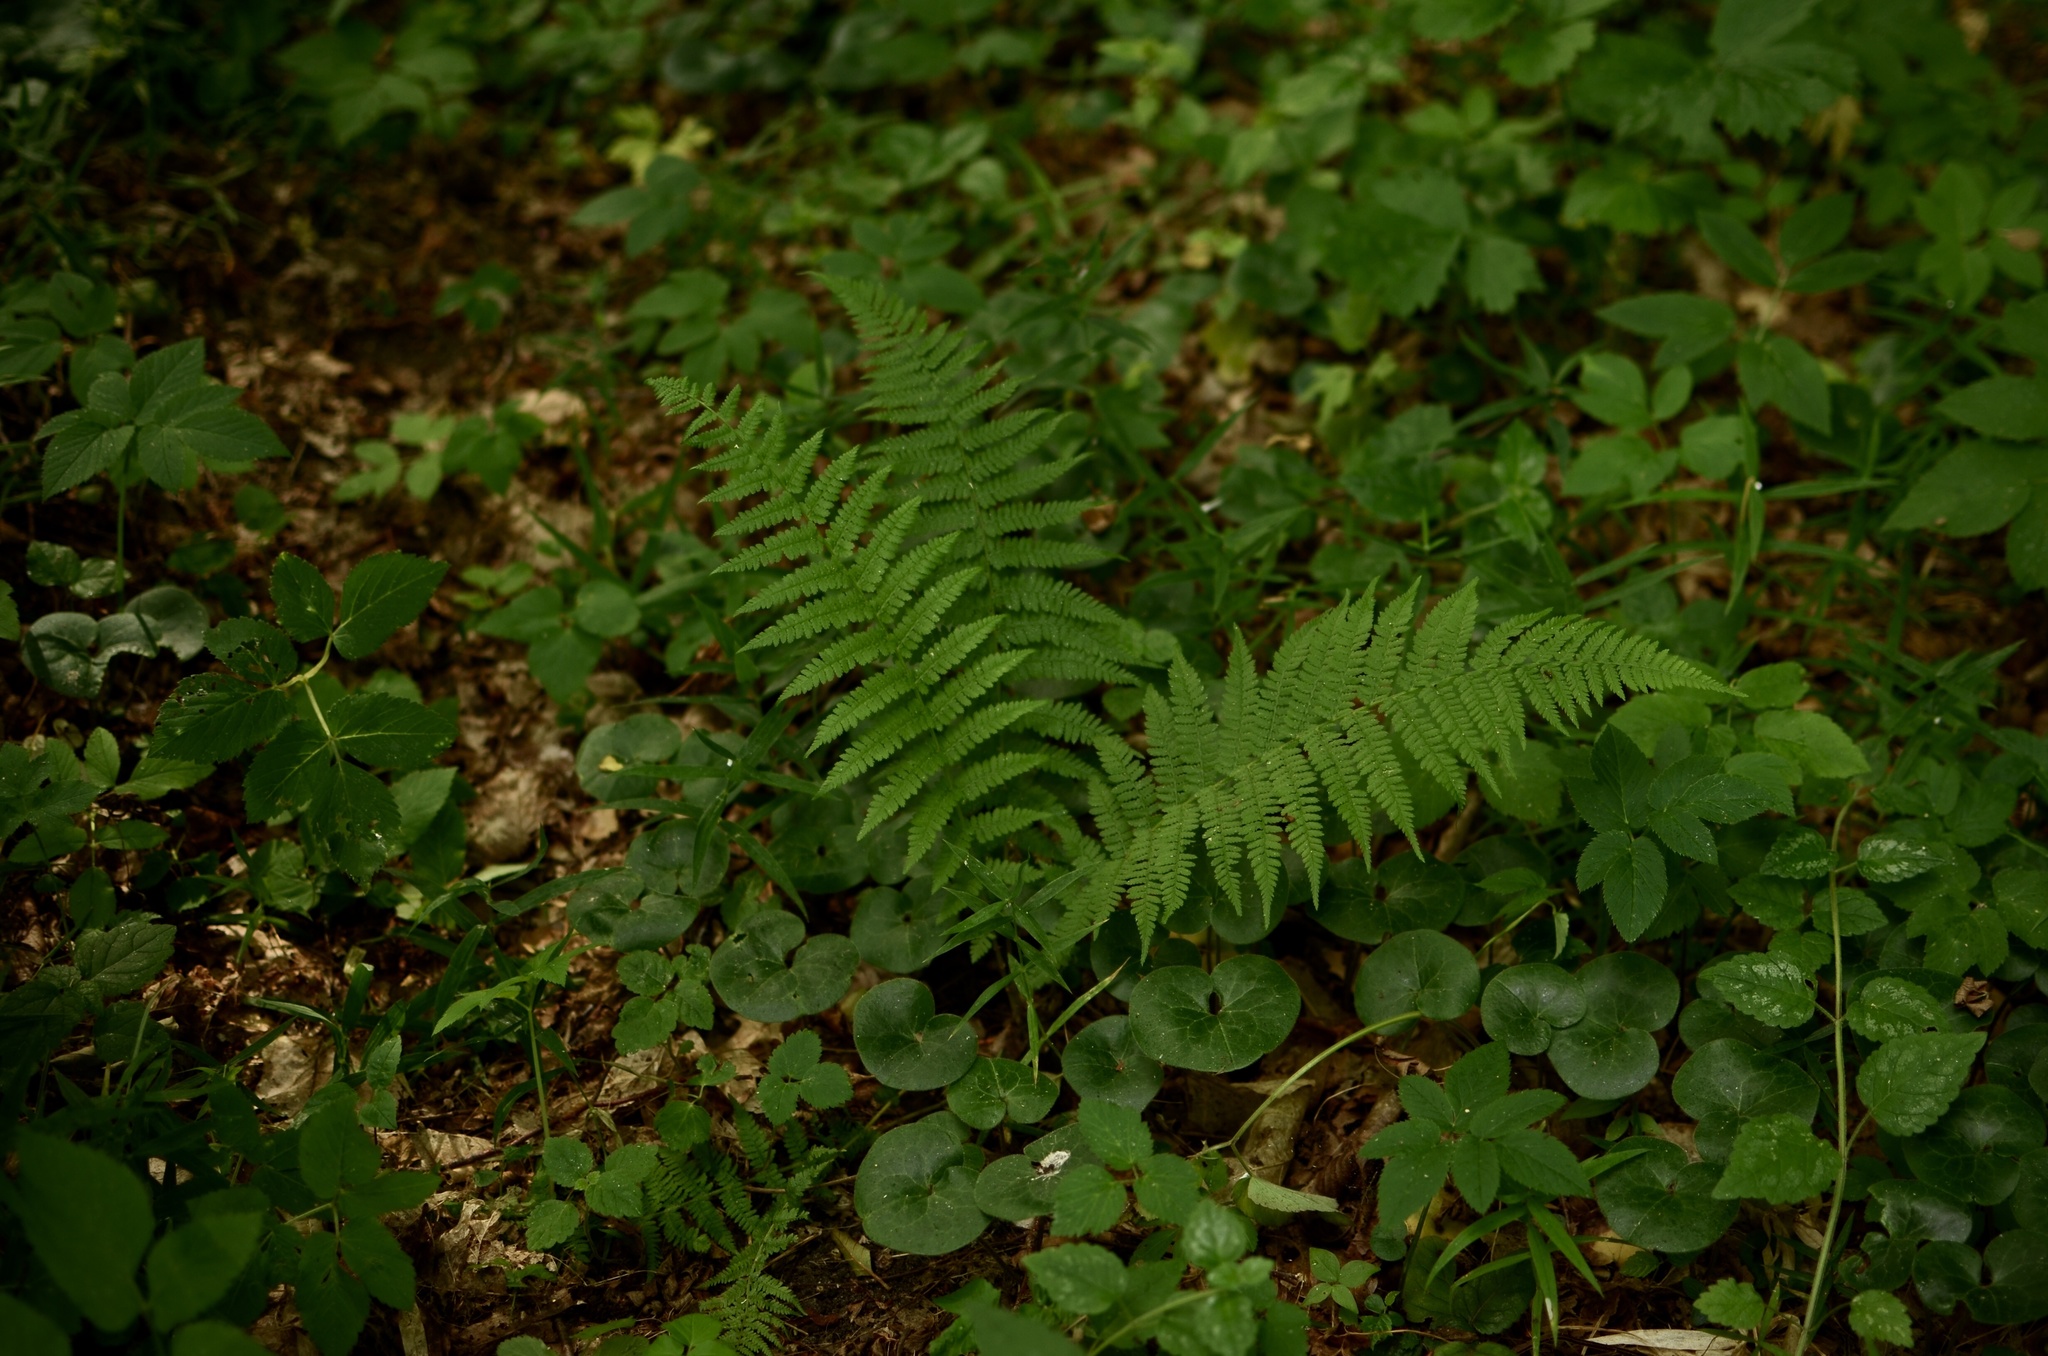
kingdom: Plantae
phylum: Tracheophyta
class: Polypodiopsida
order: Polypodiales
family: Dryopteridaceae
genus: Dryopteris
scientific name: Dryopteris filix-mas
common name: Male fern
